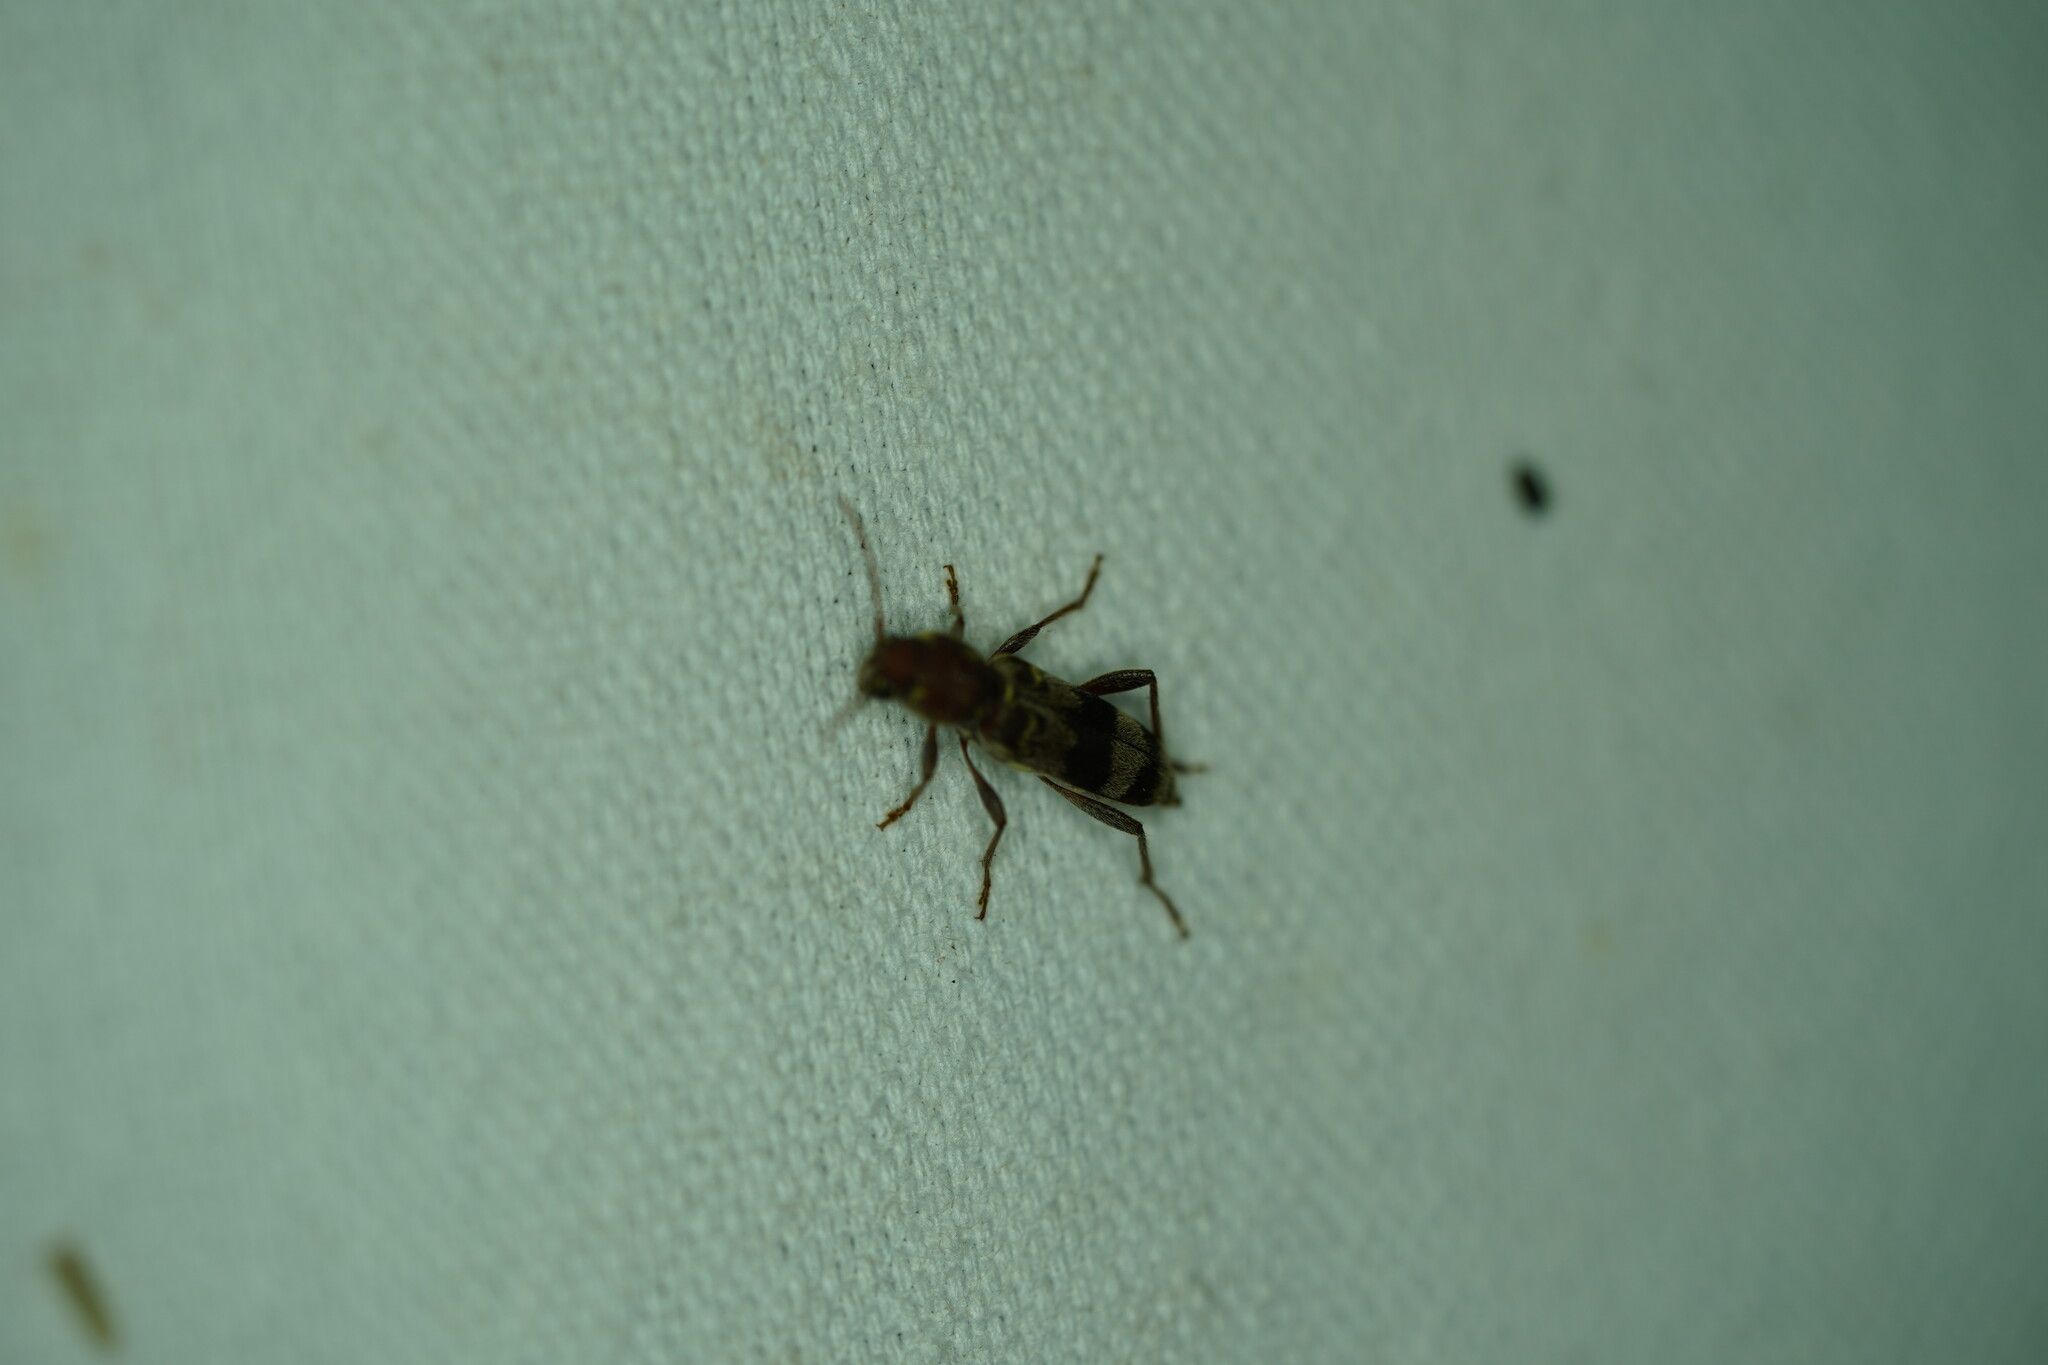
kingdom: Animalia
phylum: Arthropoda
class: Insecta
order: Coleoptera
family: Cerambycidae
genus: Xylotrechus
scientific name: Xylotrechus colonus
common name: Long-horned beetle
